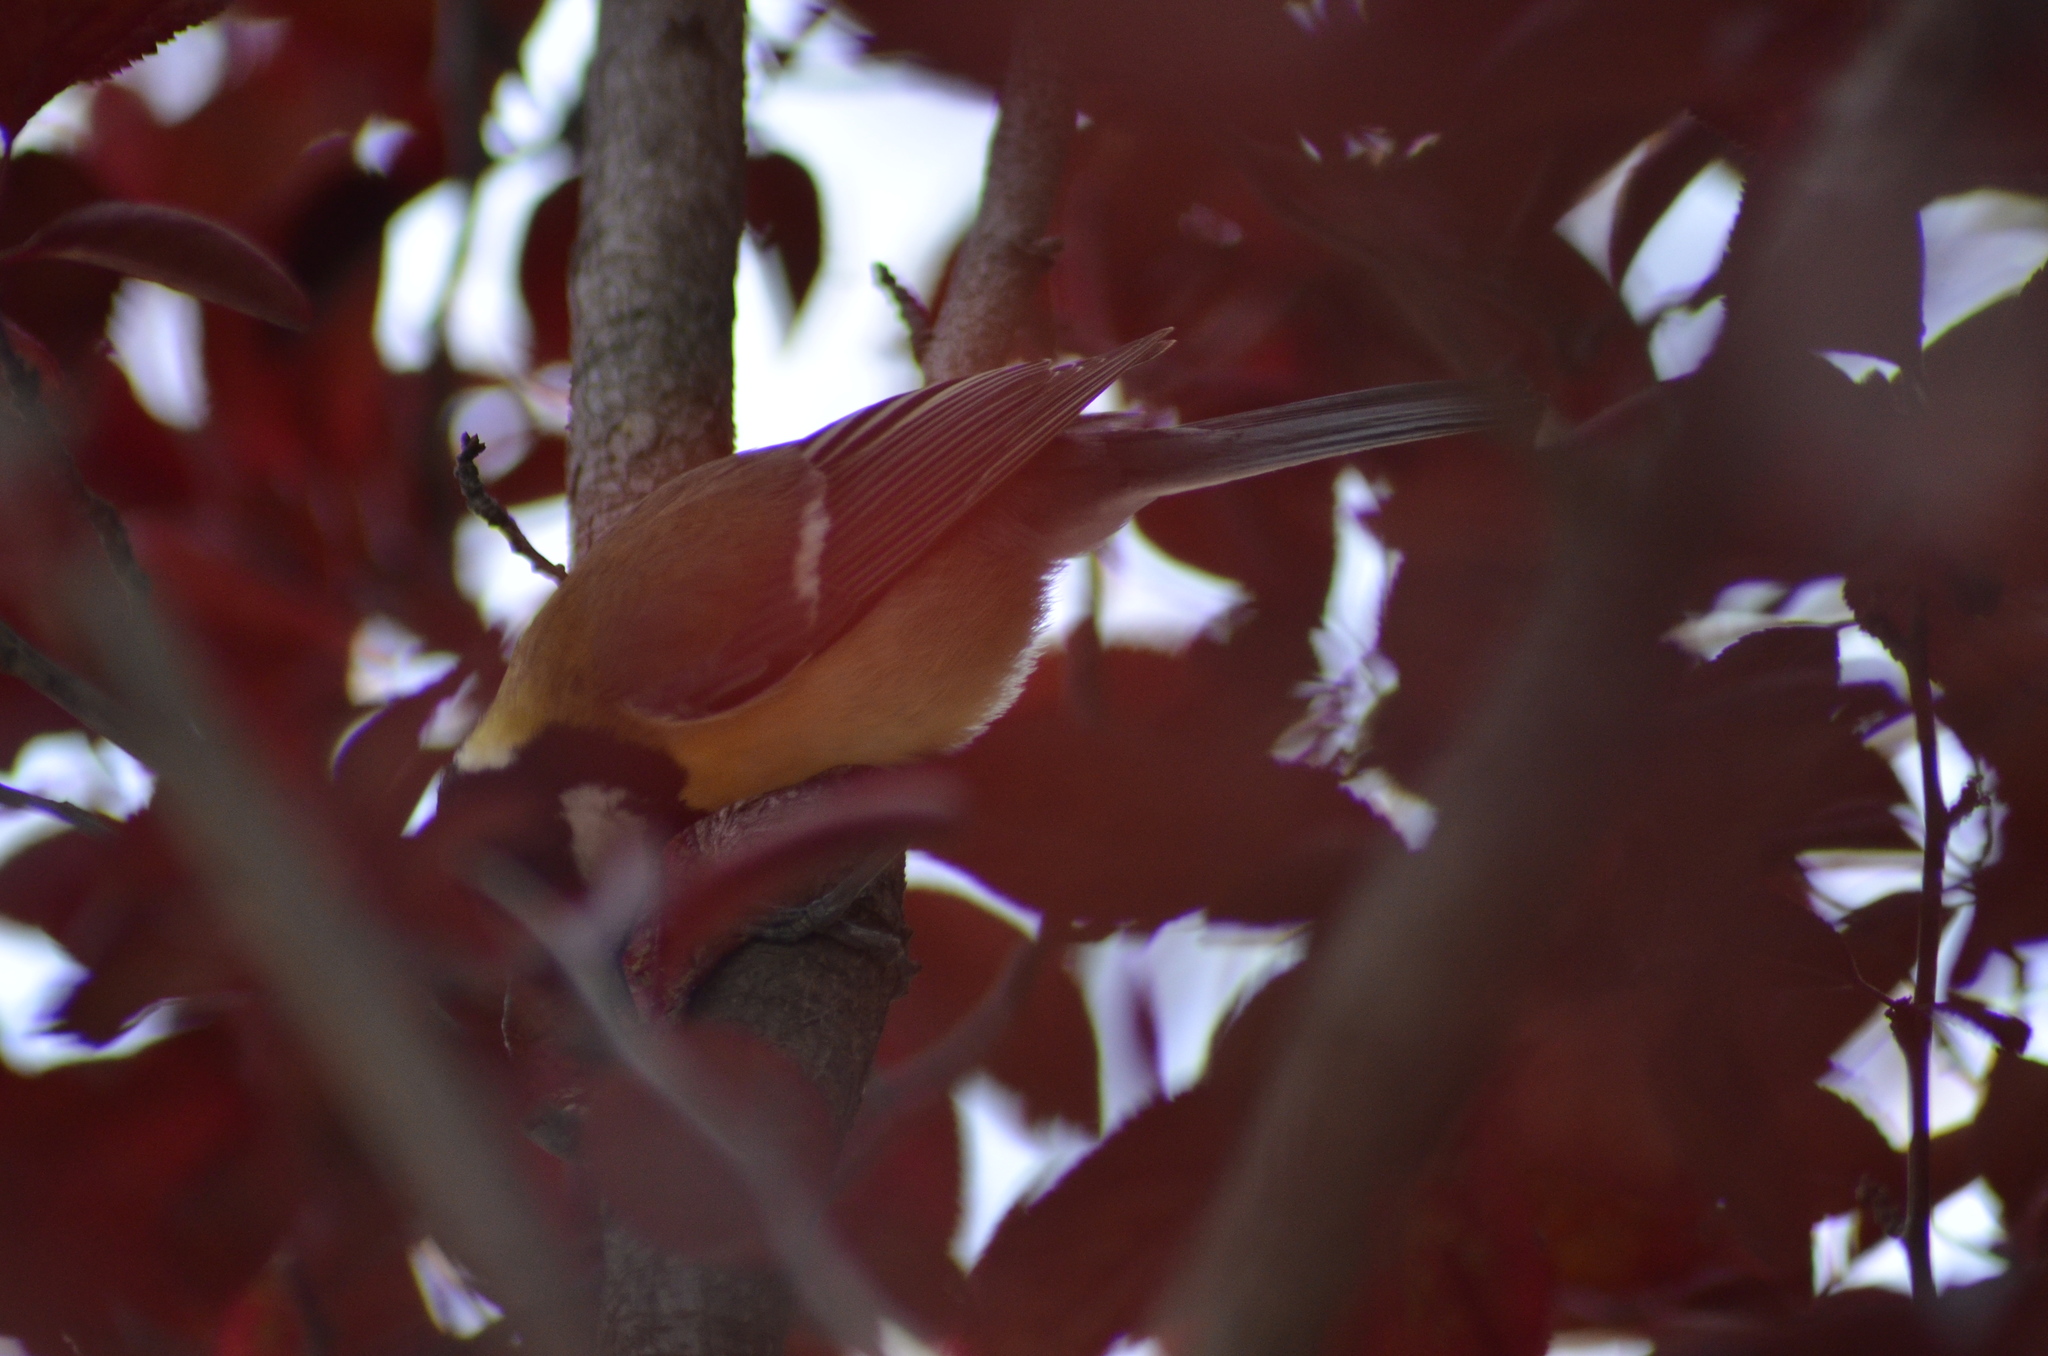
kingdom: Animalia
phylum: Chordata
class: Aves
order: Passeriformes
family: Paridae
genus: Parus
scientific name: Parus major
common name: Great tit
